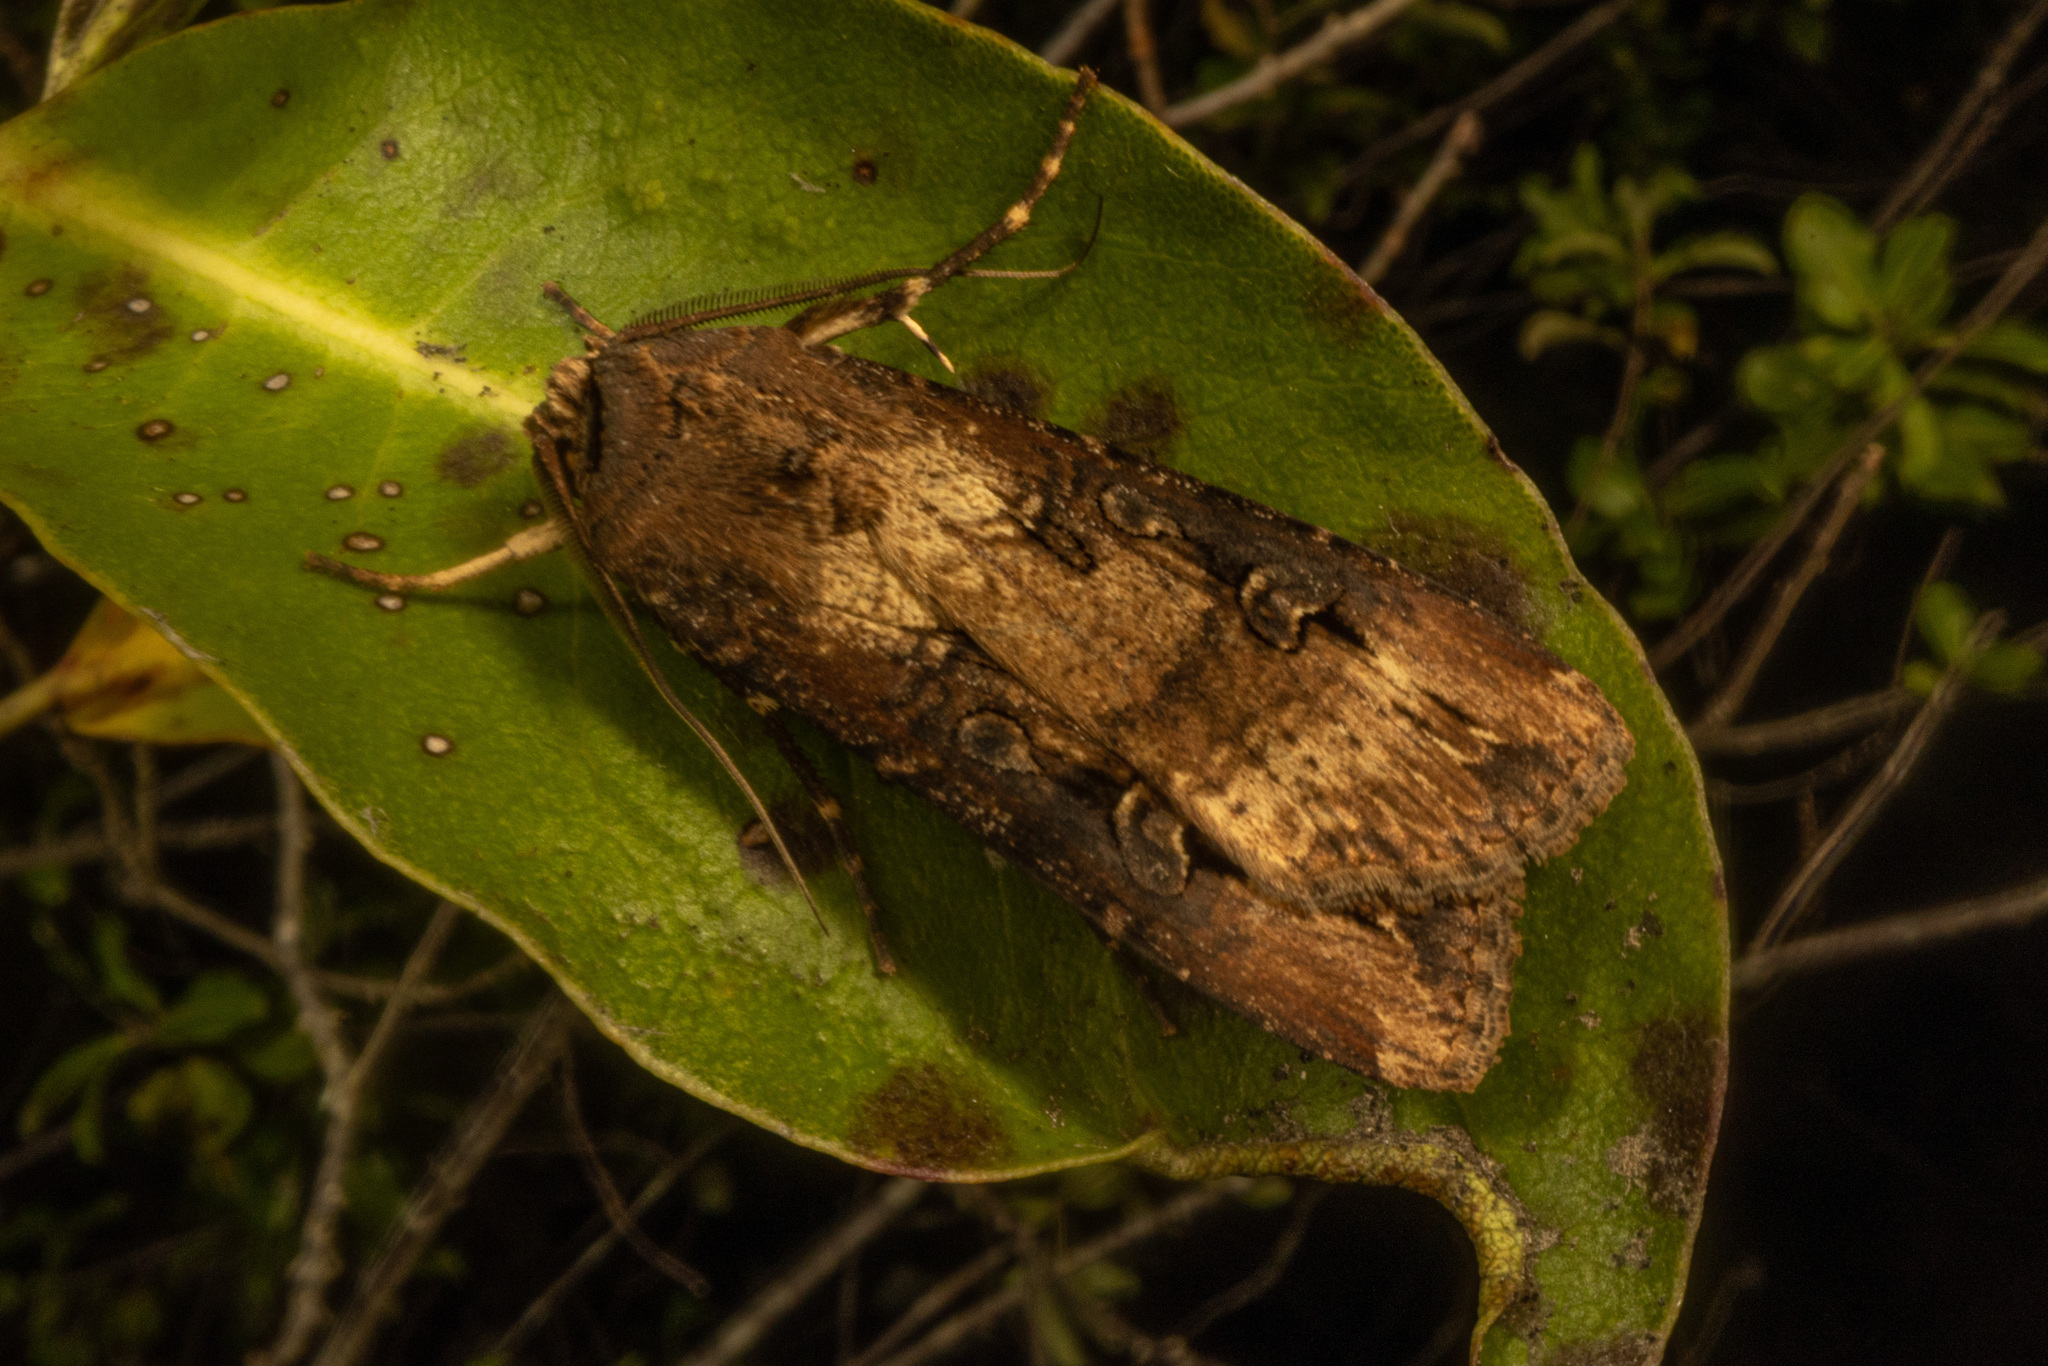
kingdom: Animalia
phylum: Arthropoda
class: Insecta
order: Lepidoptera
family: Noctuidae
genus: Agrotis
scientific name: Agrotis ipsilon
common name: Dark sword-grass
